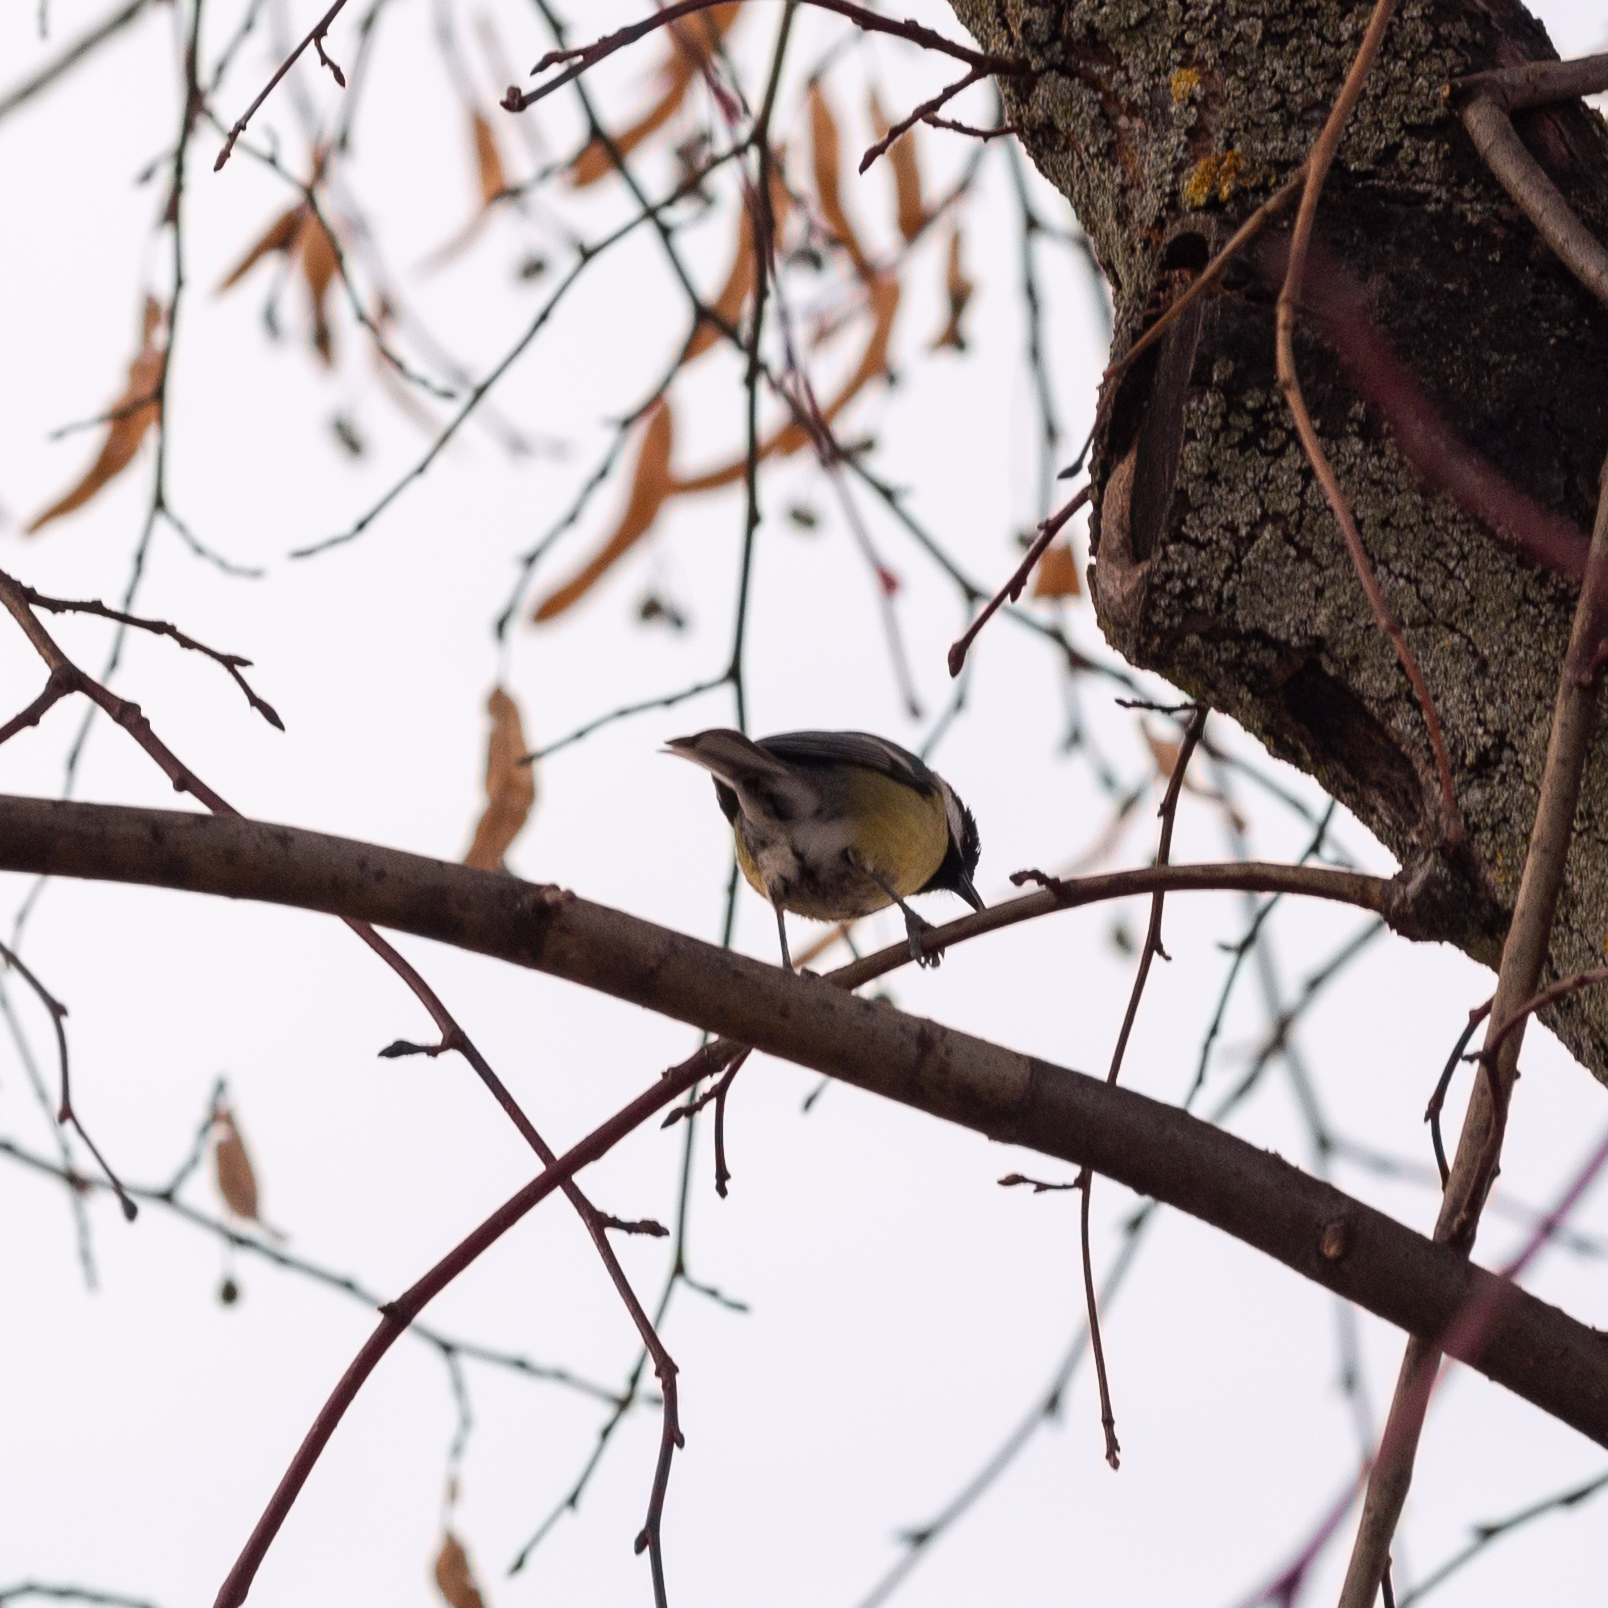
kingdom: Animalia
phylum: Chordata
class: Aves
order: Passeriformes
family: Paridae
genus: Cyanistes
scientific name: Cyanistes caeruleus
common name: Eurasian blue tit
